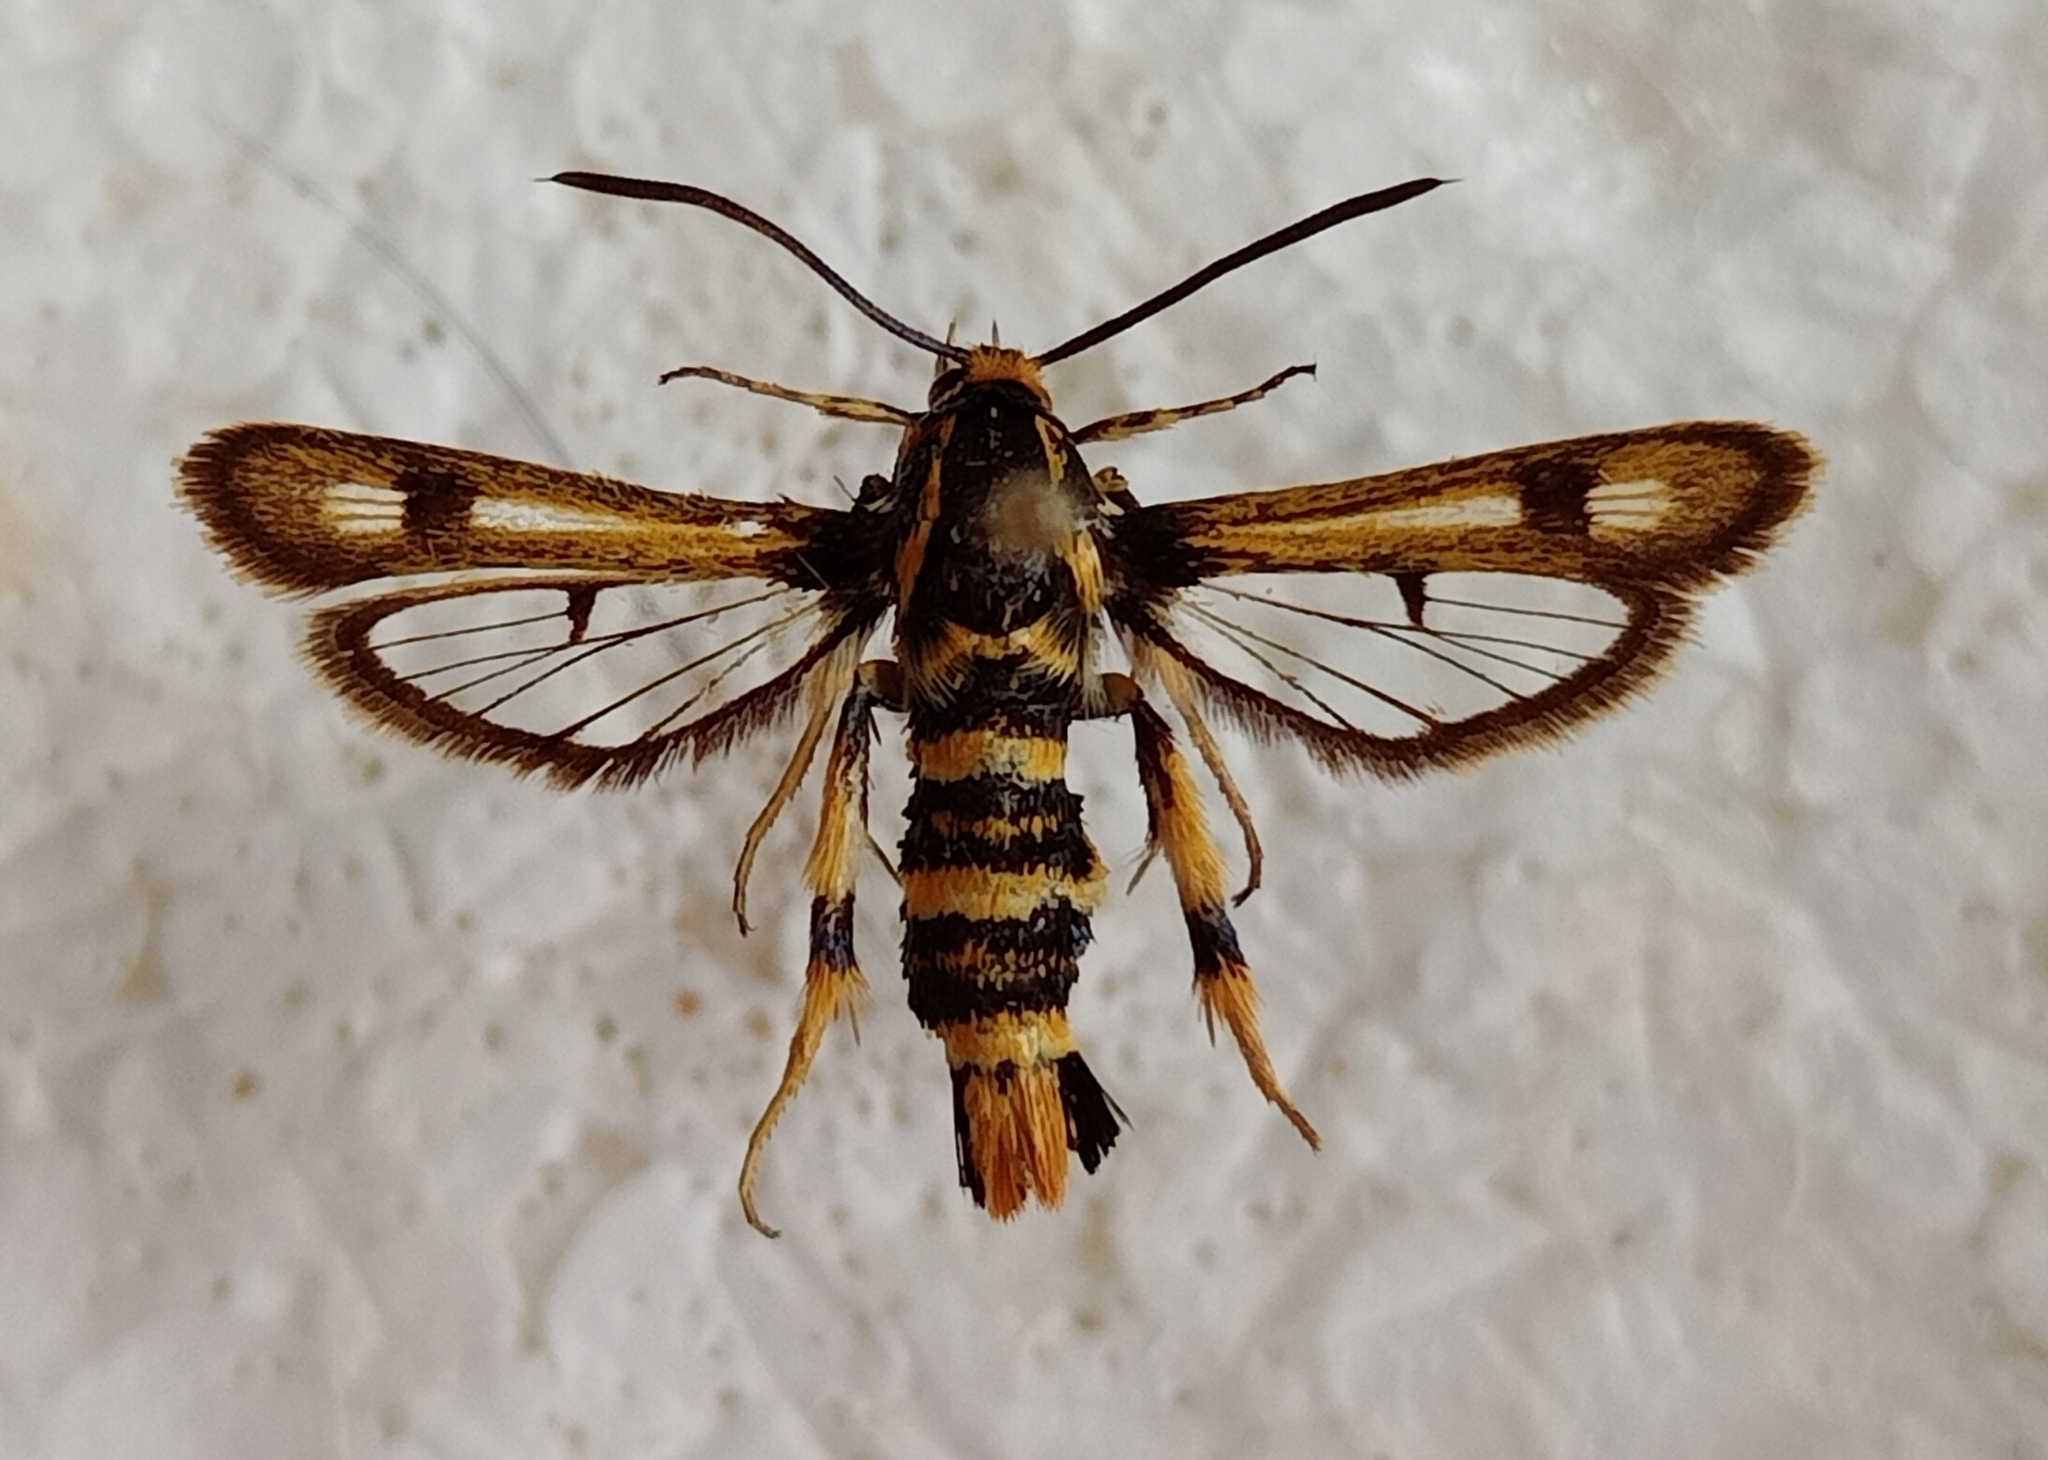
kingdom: Animalia
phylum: Arthropoda
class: Insecta
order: Lepidoptera
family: Sesiidae
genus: Chamaesphecia
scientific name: Chamaesphecia morosa
